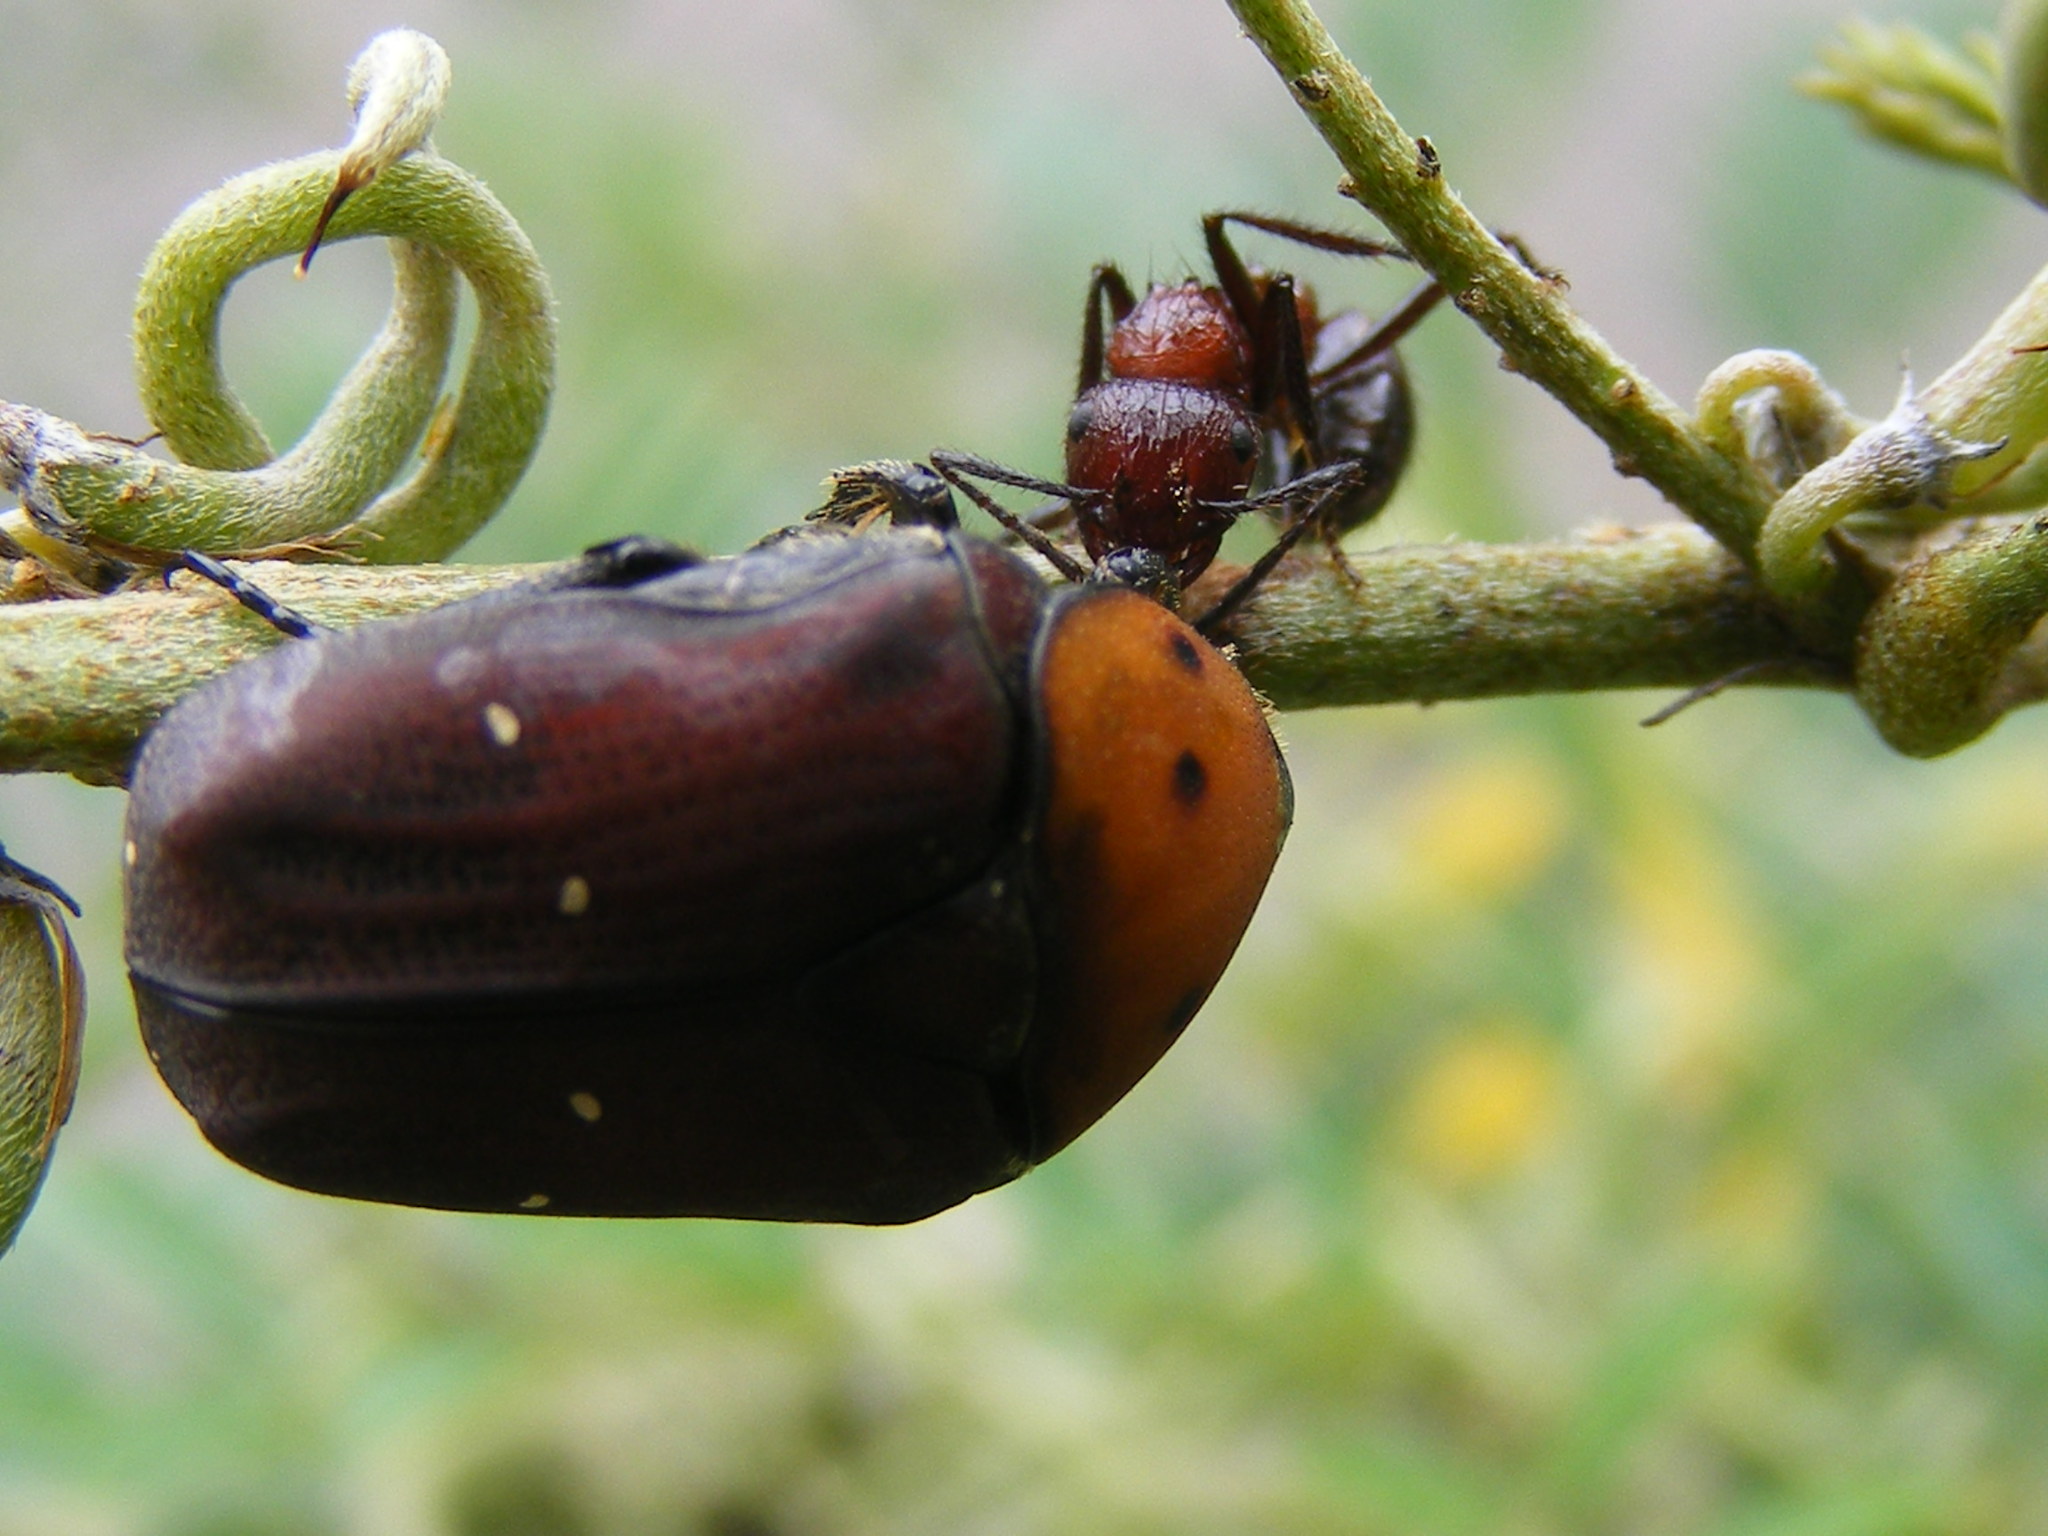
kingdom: Animalia
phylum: Arthropoda
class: Insecta
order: Coleoptera
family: Scarabaeidae
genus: Tephraea
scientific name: Tephraea dichroa
